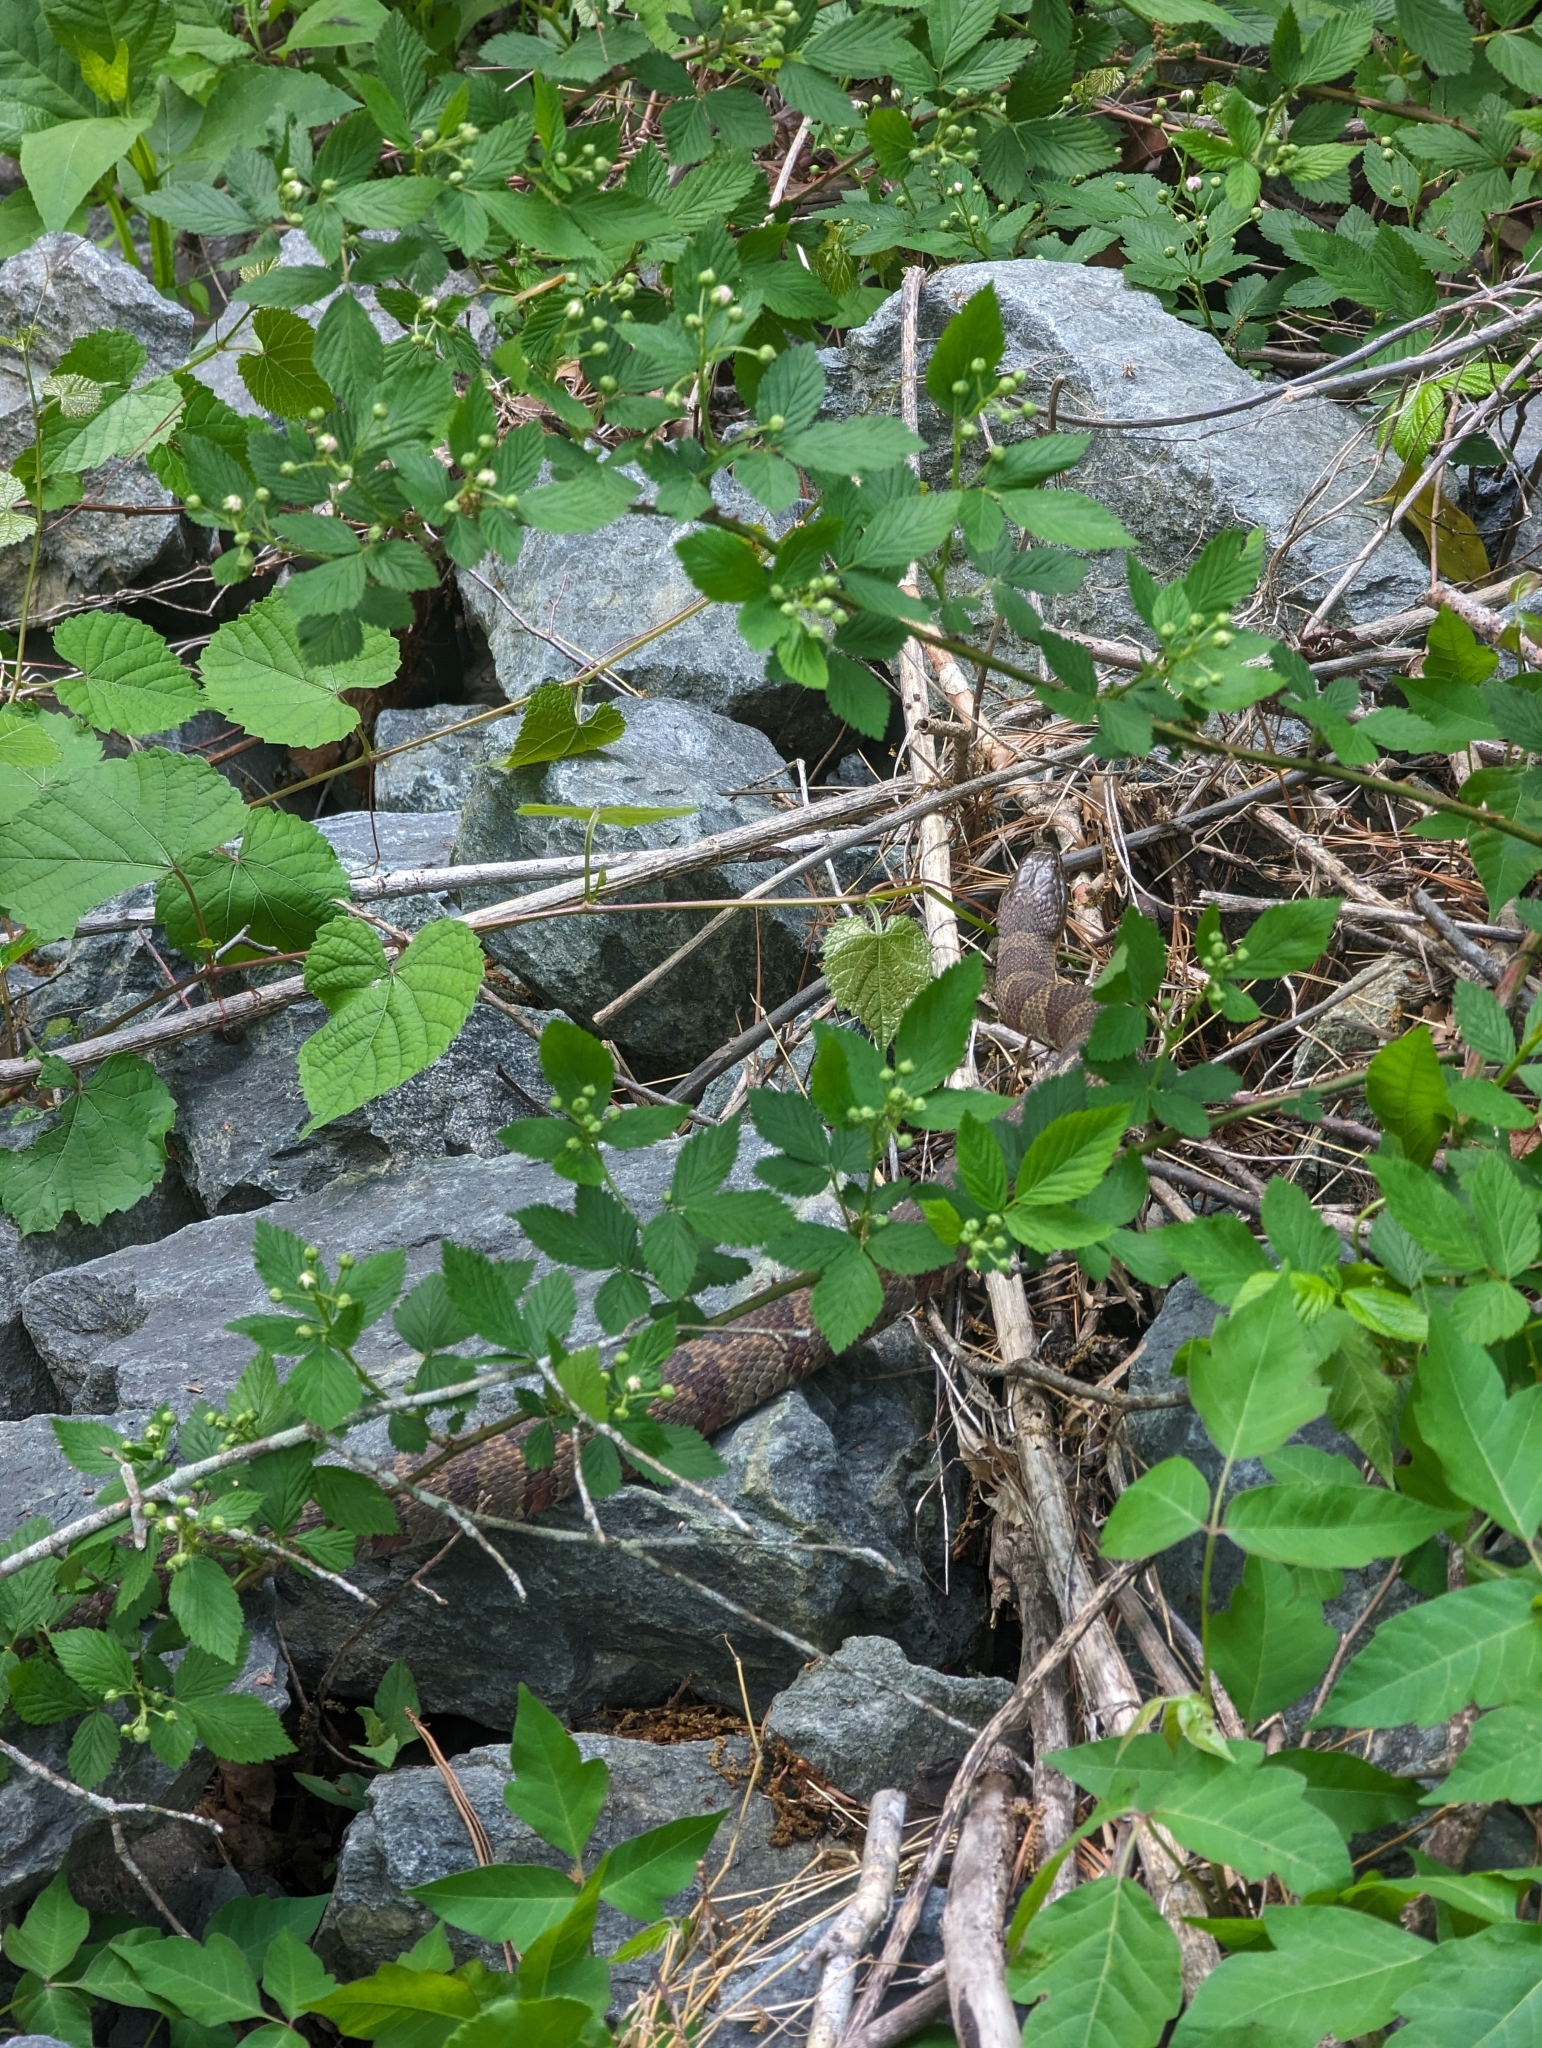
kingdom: Animalia
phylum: Chordata
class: Squamata
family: Colubridae
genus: Nerodia
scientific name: Nerodia sipedon
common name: Northern water snake
